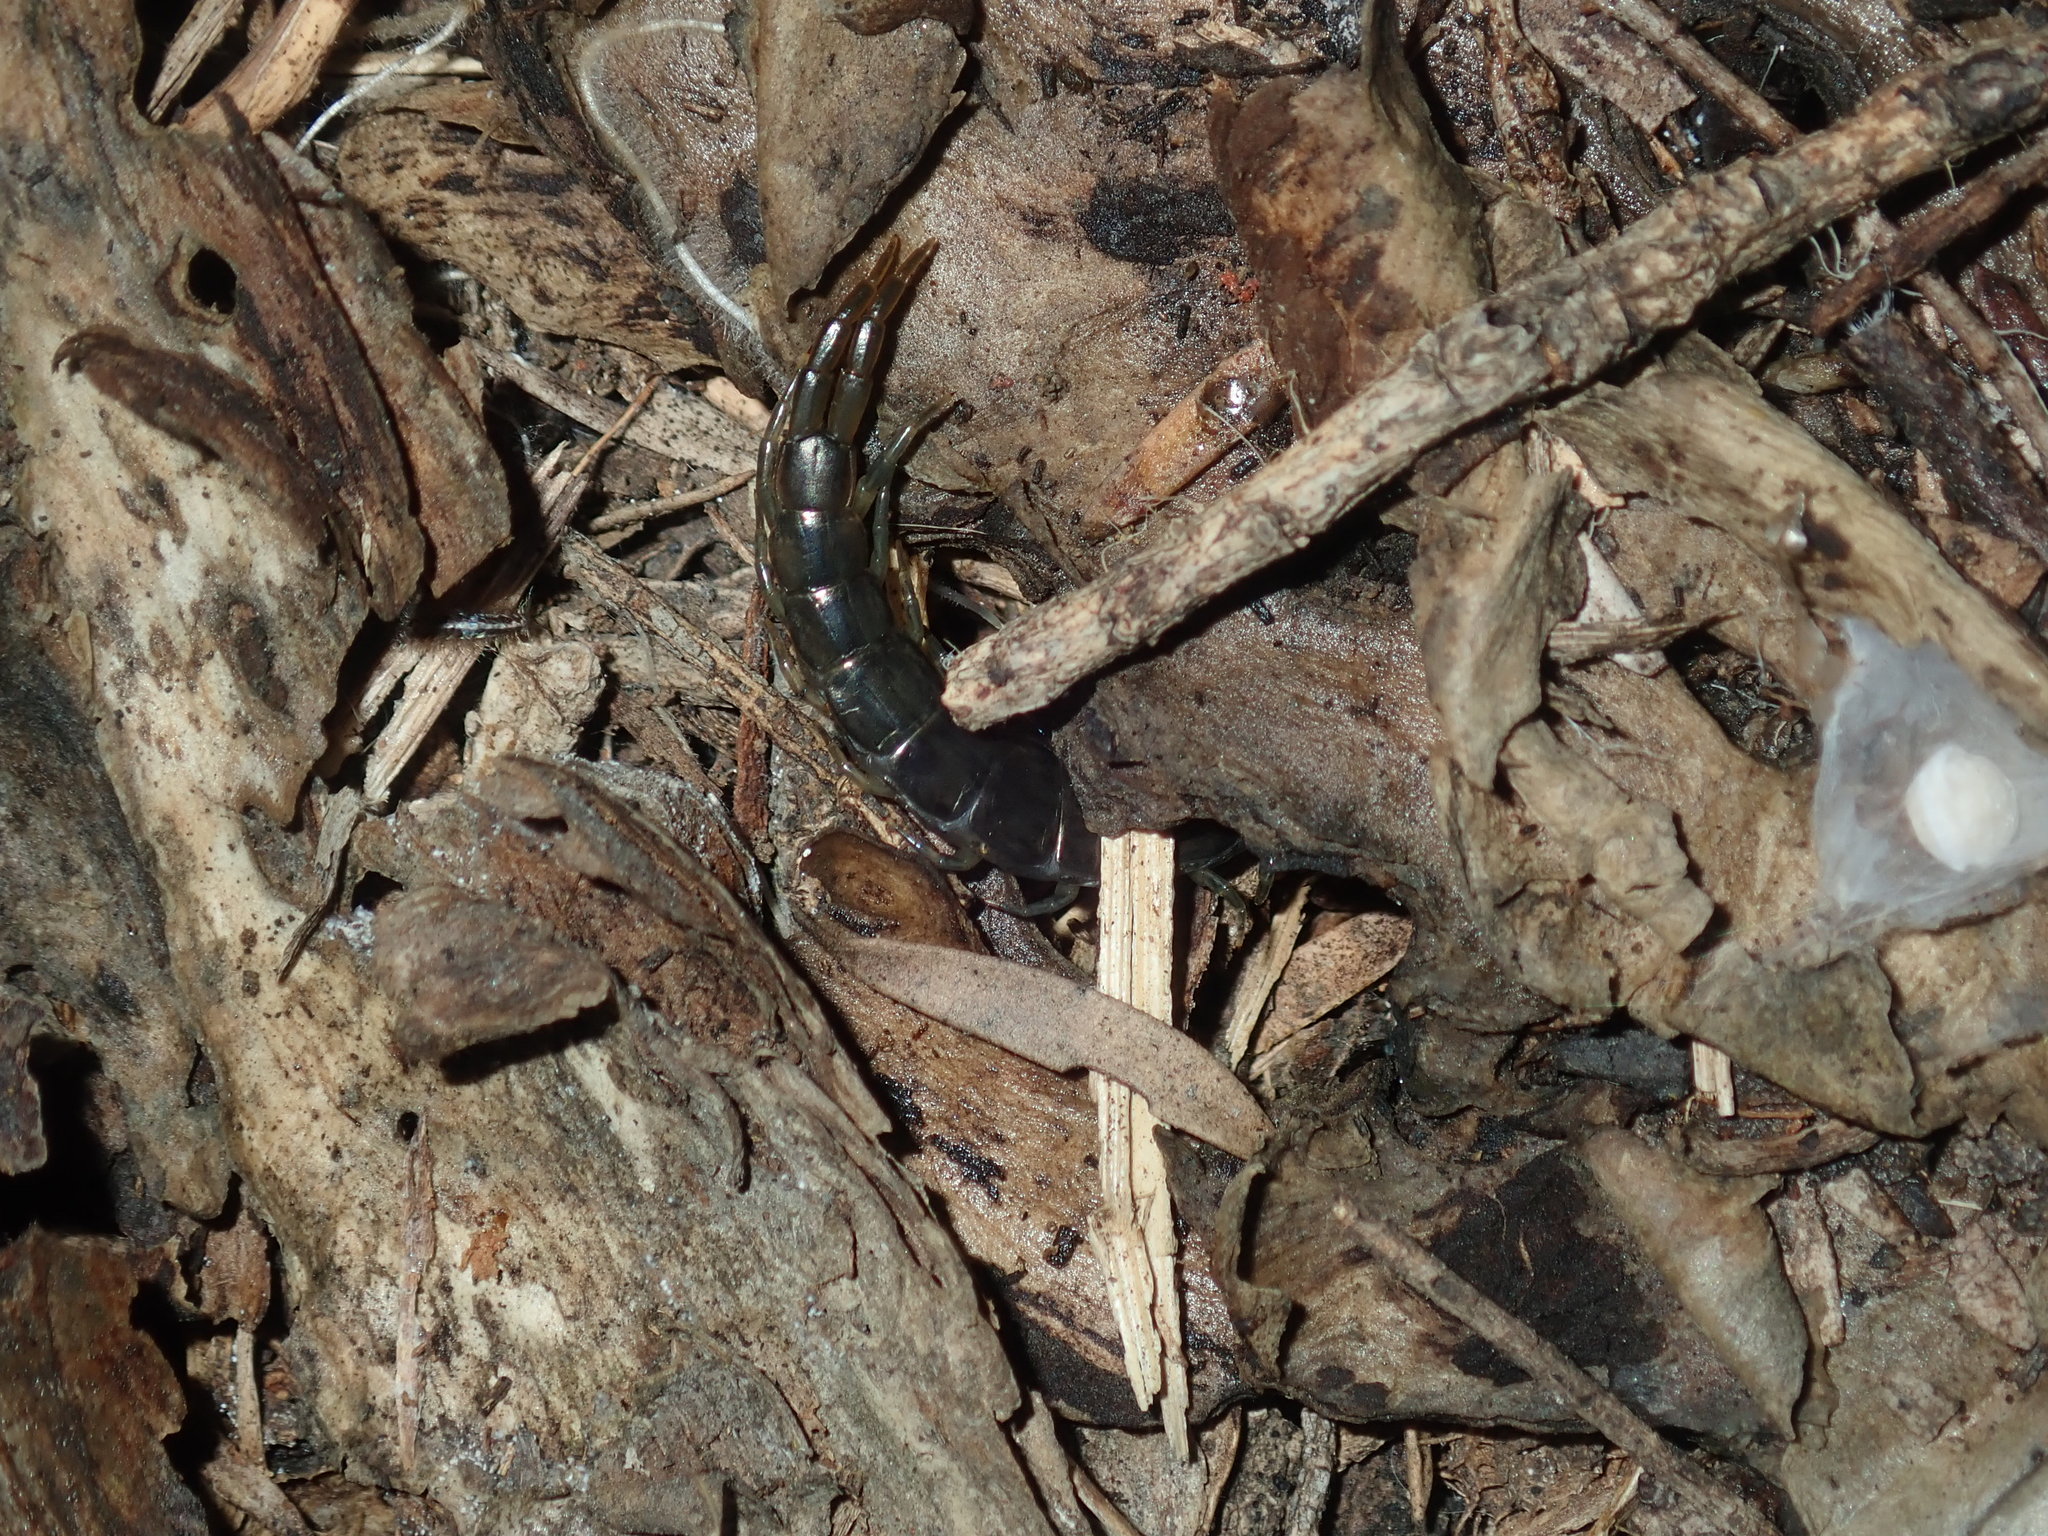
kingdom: Animalia
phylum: Arthropoda
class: Chilopoda
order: Scolopendromorpha
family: Scolopendridae
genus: Cormocephalus
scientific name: Cormocephalus esulcatus
